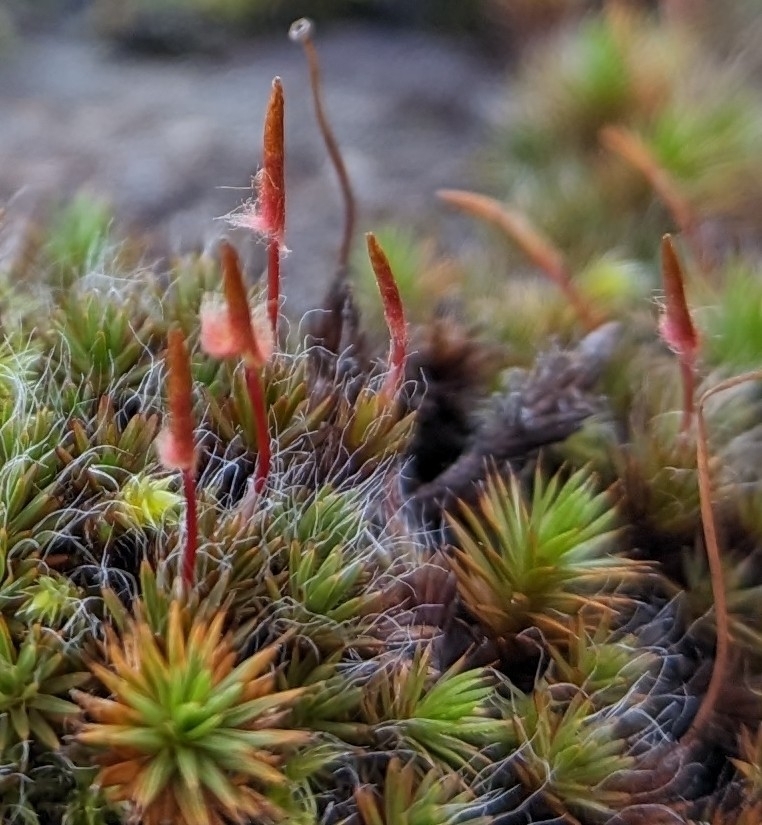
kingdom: Plantae
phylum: Bryophyta
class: Polytrichopsida
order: Polytrichales
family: Polytrichaceae
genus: Polytrichum
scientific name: Polytrichum piliferum
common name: Bristly haircap
